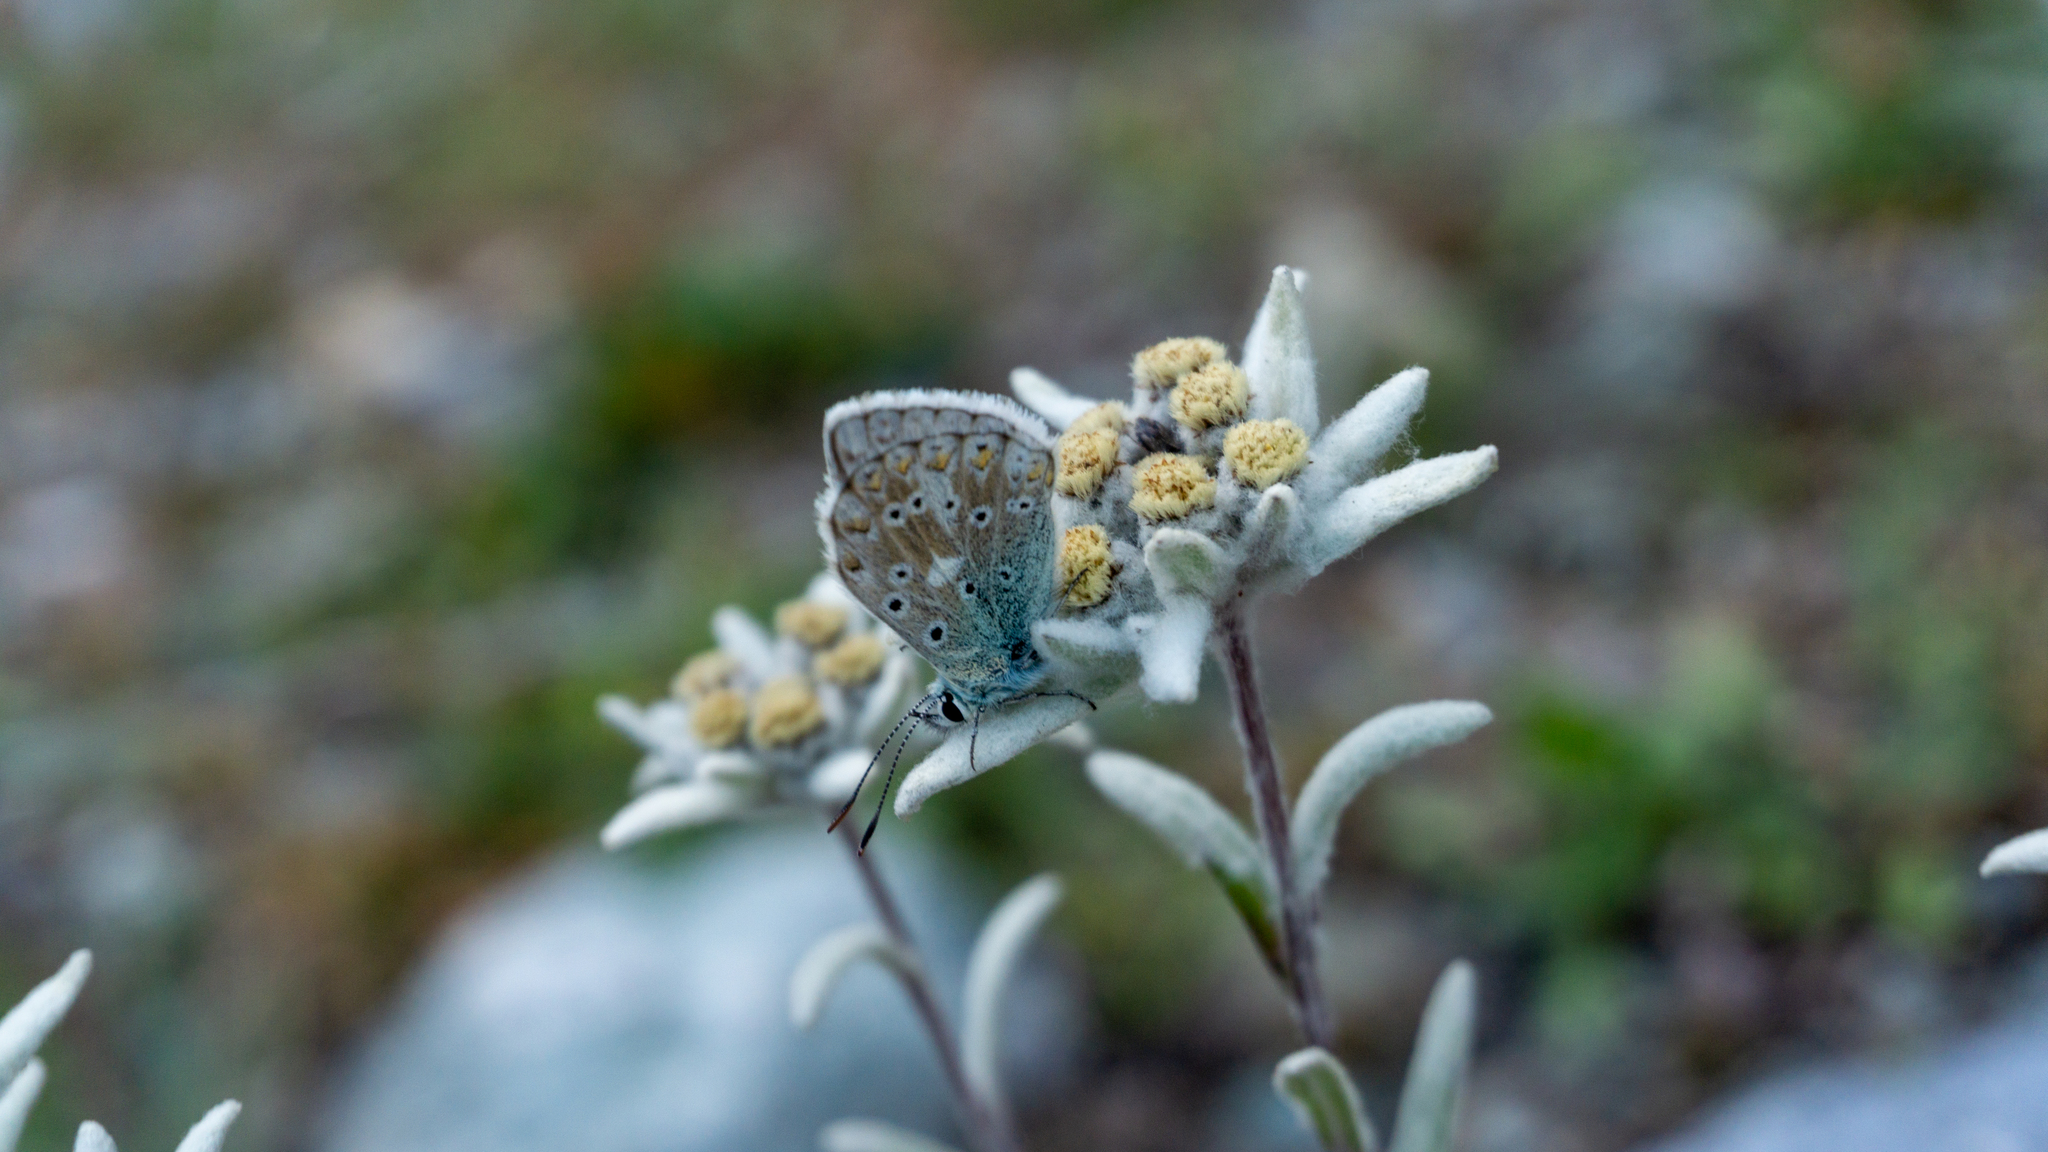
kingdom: Plantae
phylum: Tracheophyta
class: Magnoliopsida
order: Asterales
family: Asteraceae
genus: Leontopodium
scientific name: Leontopodium nivale
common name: Edelweiss
